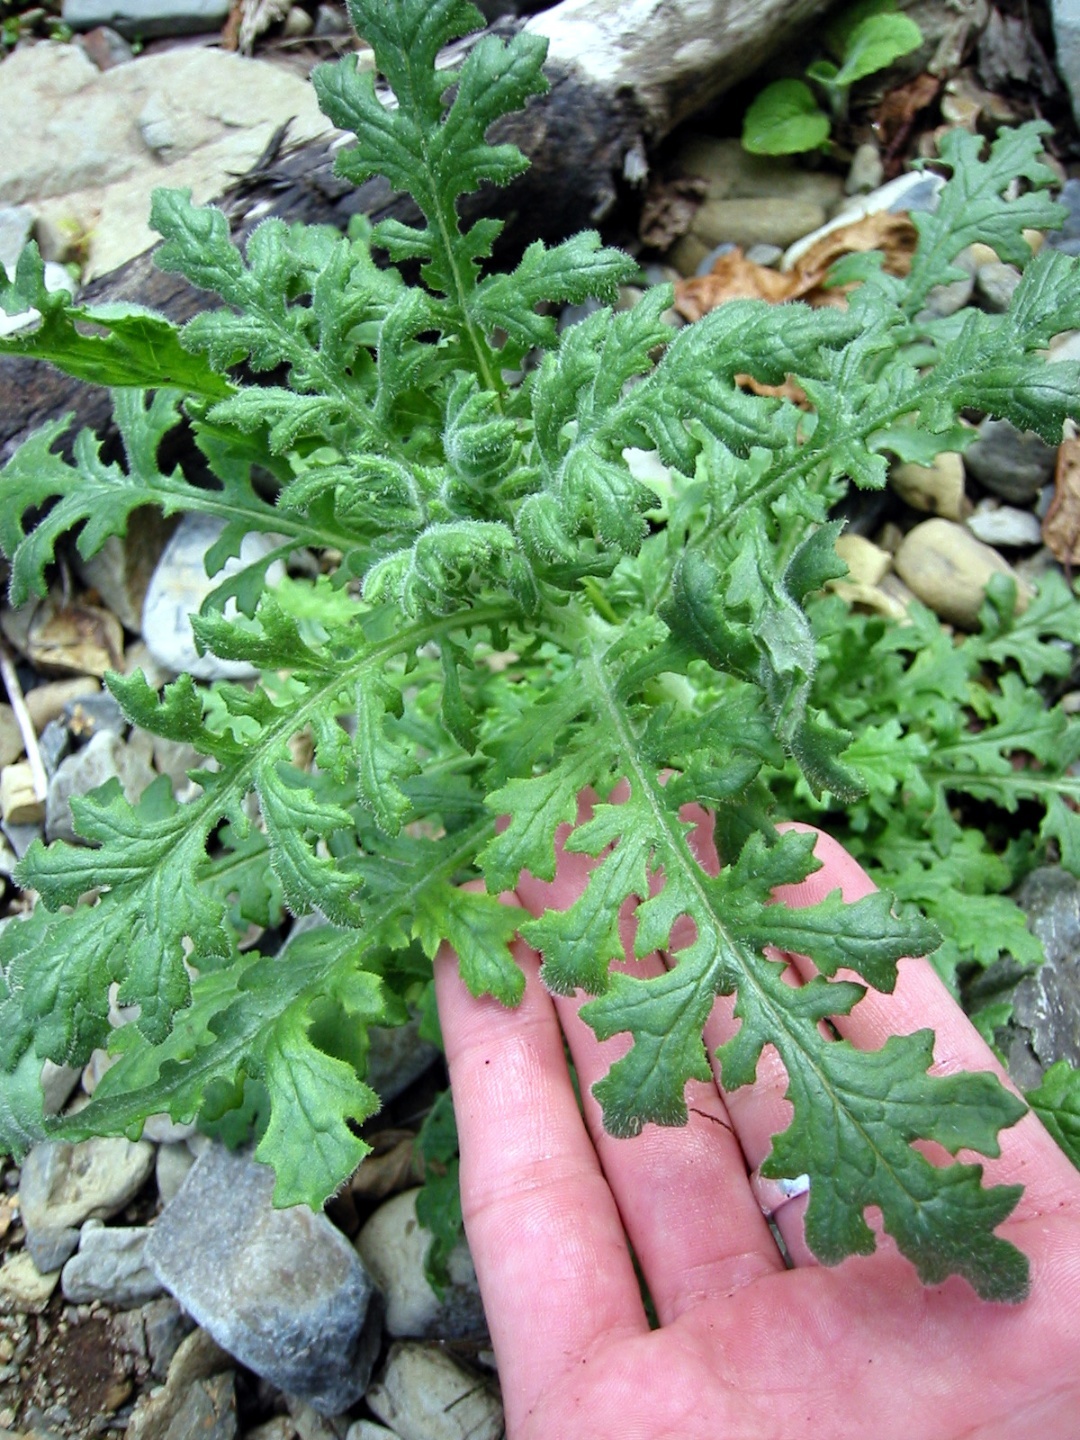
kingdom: Plantae
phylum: Tracheophyta
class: Magnoliopsida
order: Asterales
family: Asteraceae
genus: Senecio
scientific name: Senecio sylvaticus
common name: Woodland ragwort
